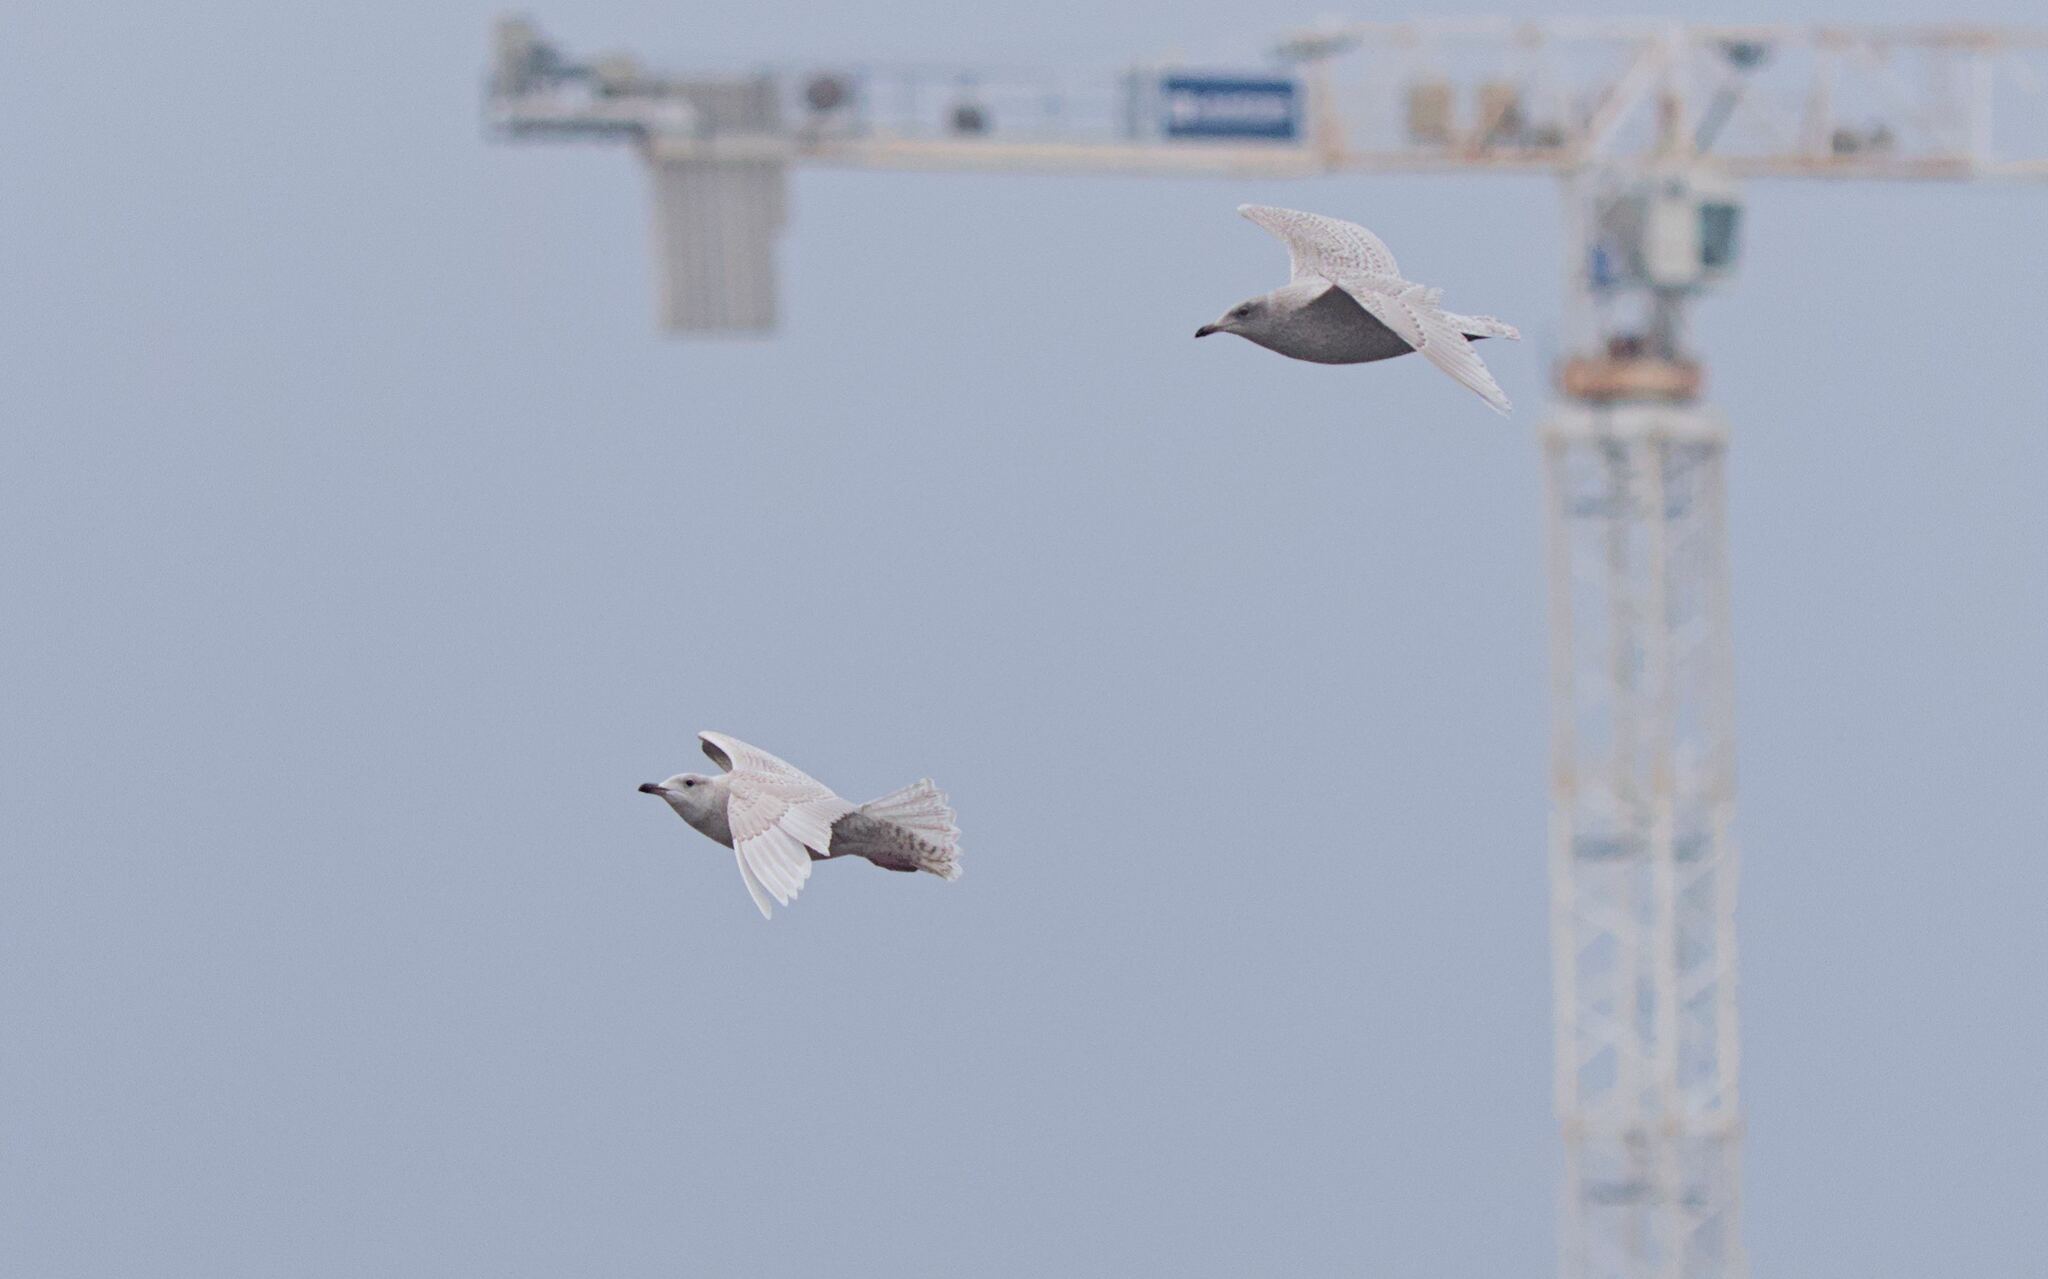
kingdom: Animalia
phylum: Chordata
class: Aves
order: Charadriiformes
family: Laridae
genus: Larus
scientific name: Larus glaucoides
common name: Iceland gull
